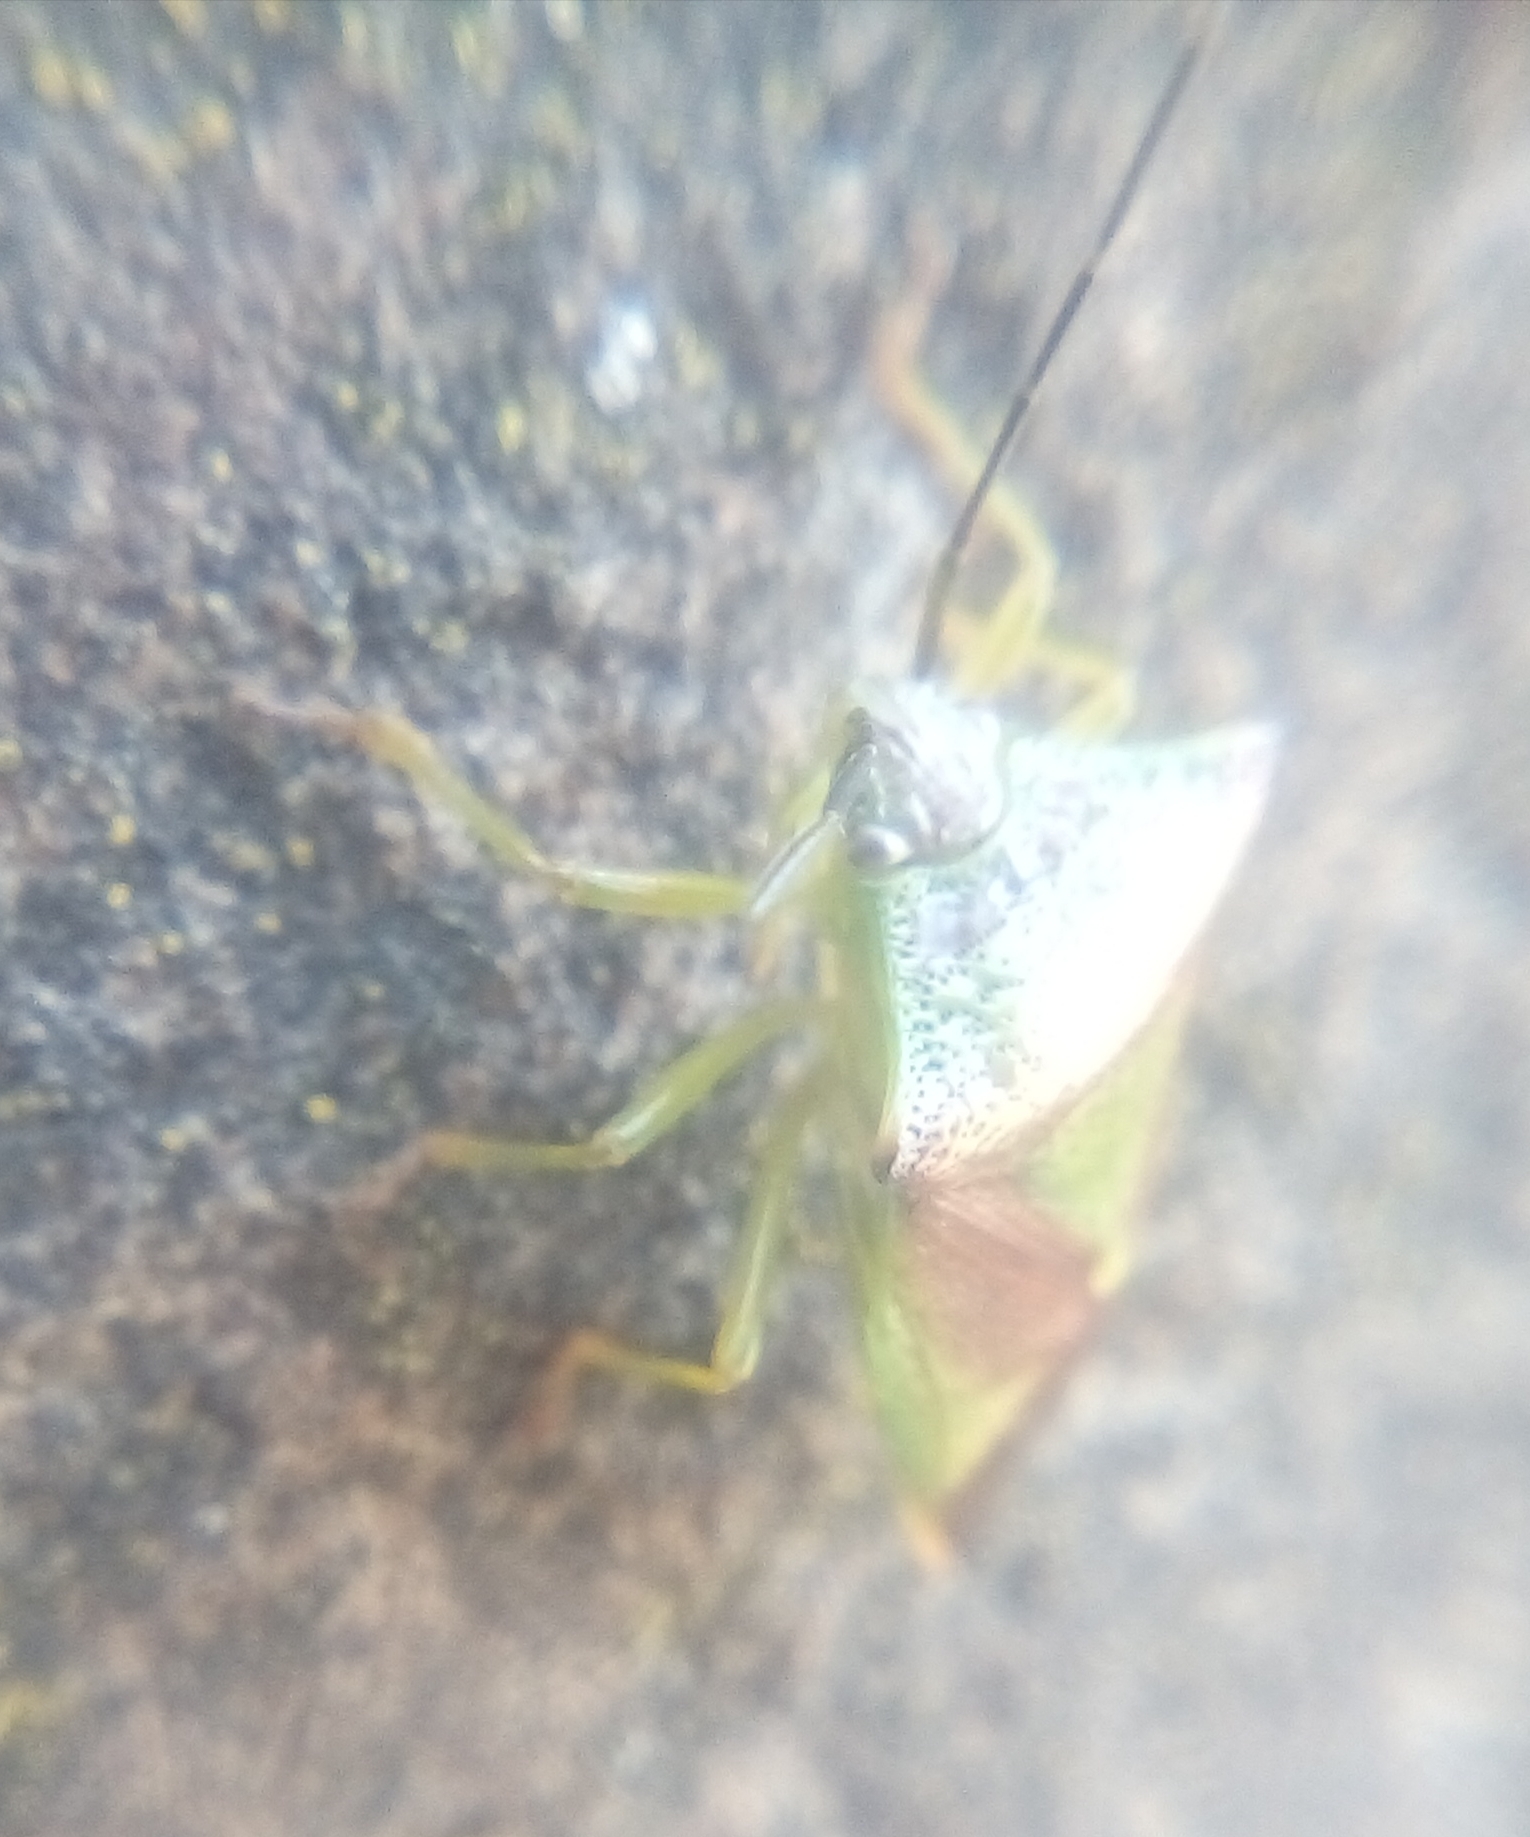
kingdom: Animalia
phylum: Arthropoda
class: Insecta
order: Hemiptera
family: Acanthosomatidae
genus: Acanthosoma
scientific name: Acanthosoma haemorrhoidale
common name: Hawthorn shieldbug
